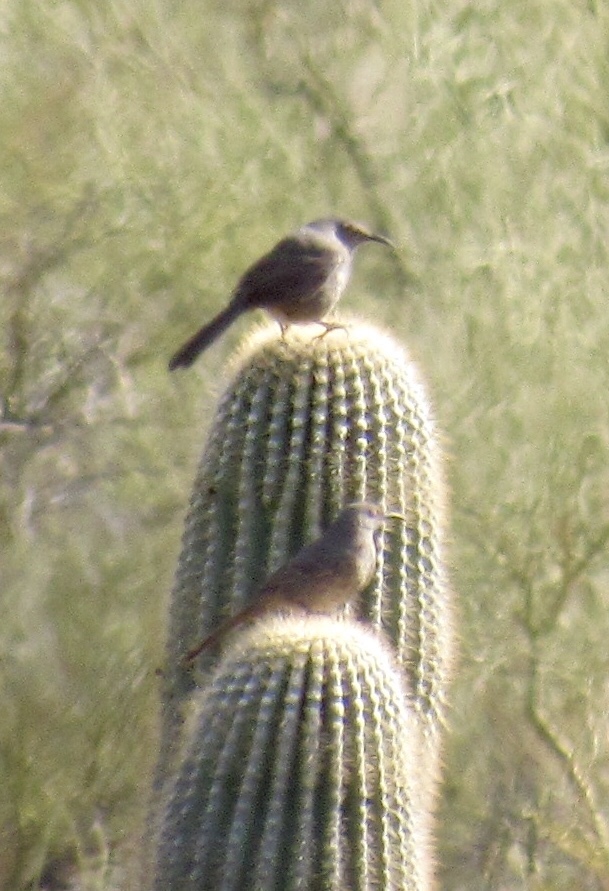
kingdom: Animalia
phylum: Chordata
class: Aves
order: Passeriformes
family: Mimidae
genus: Toxostoma
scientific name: Toxostoma curvirostre
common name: Curve-billed thrasher
